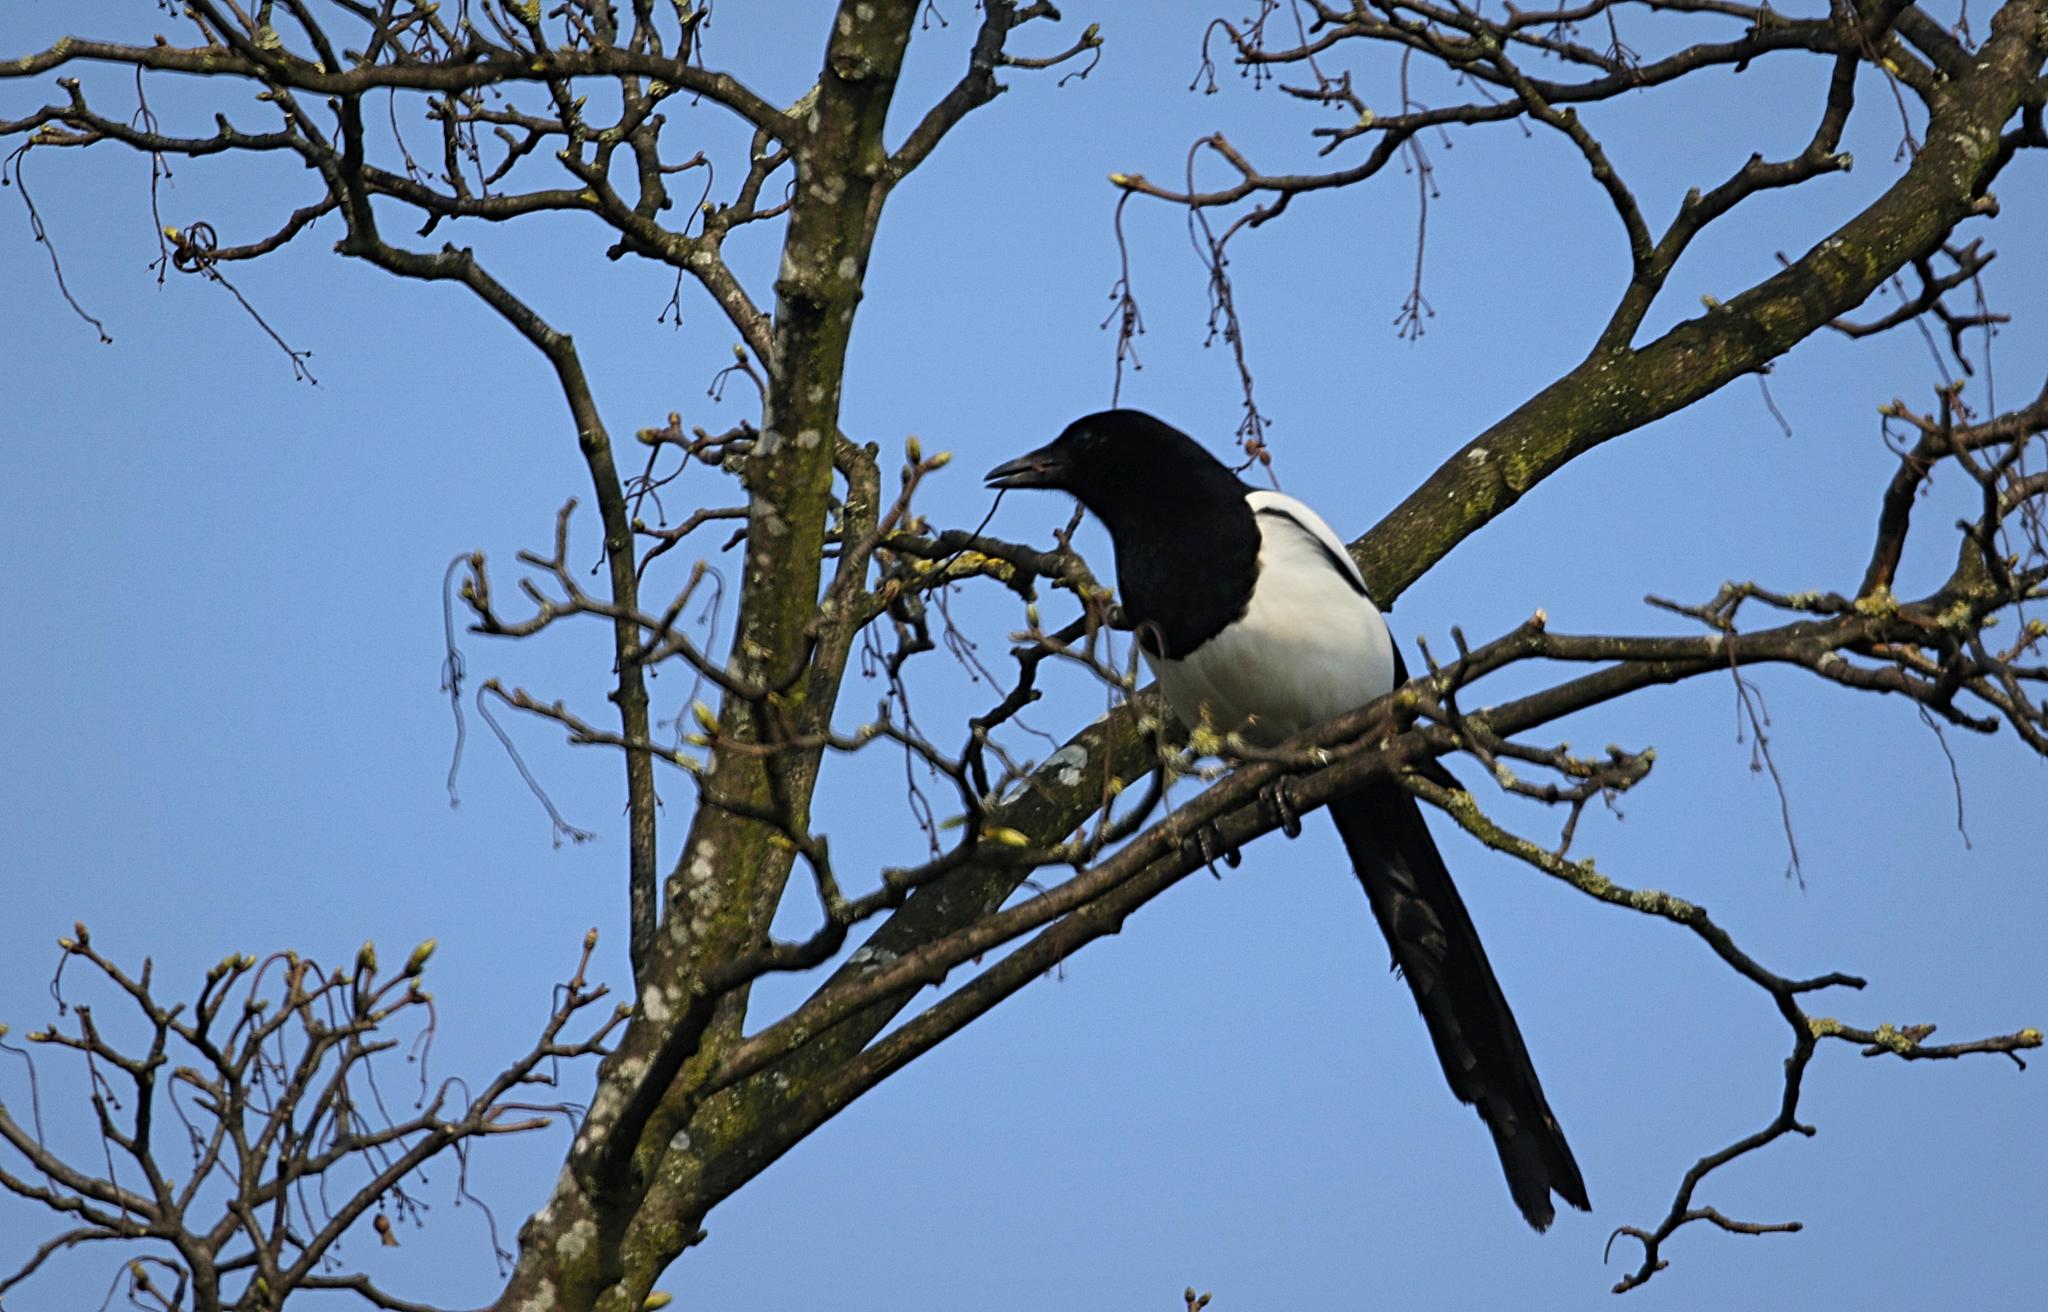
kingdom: Animalia
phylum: Chordata
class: Aves
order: Passeriformes
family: Corvidae
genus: Pica
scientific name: Pica pica
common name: Eurasian magpie
